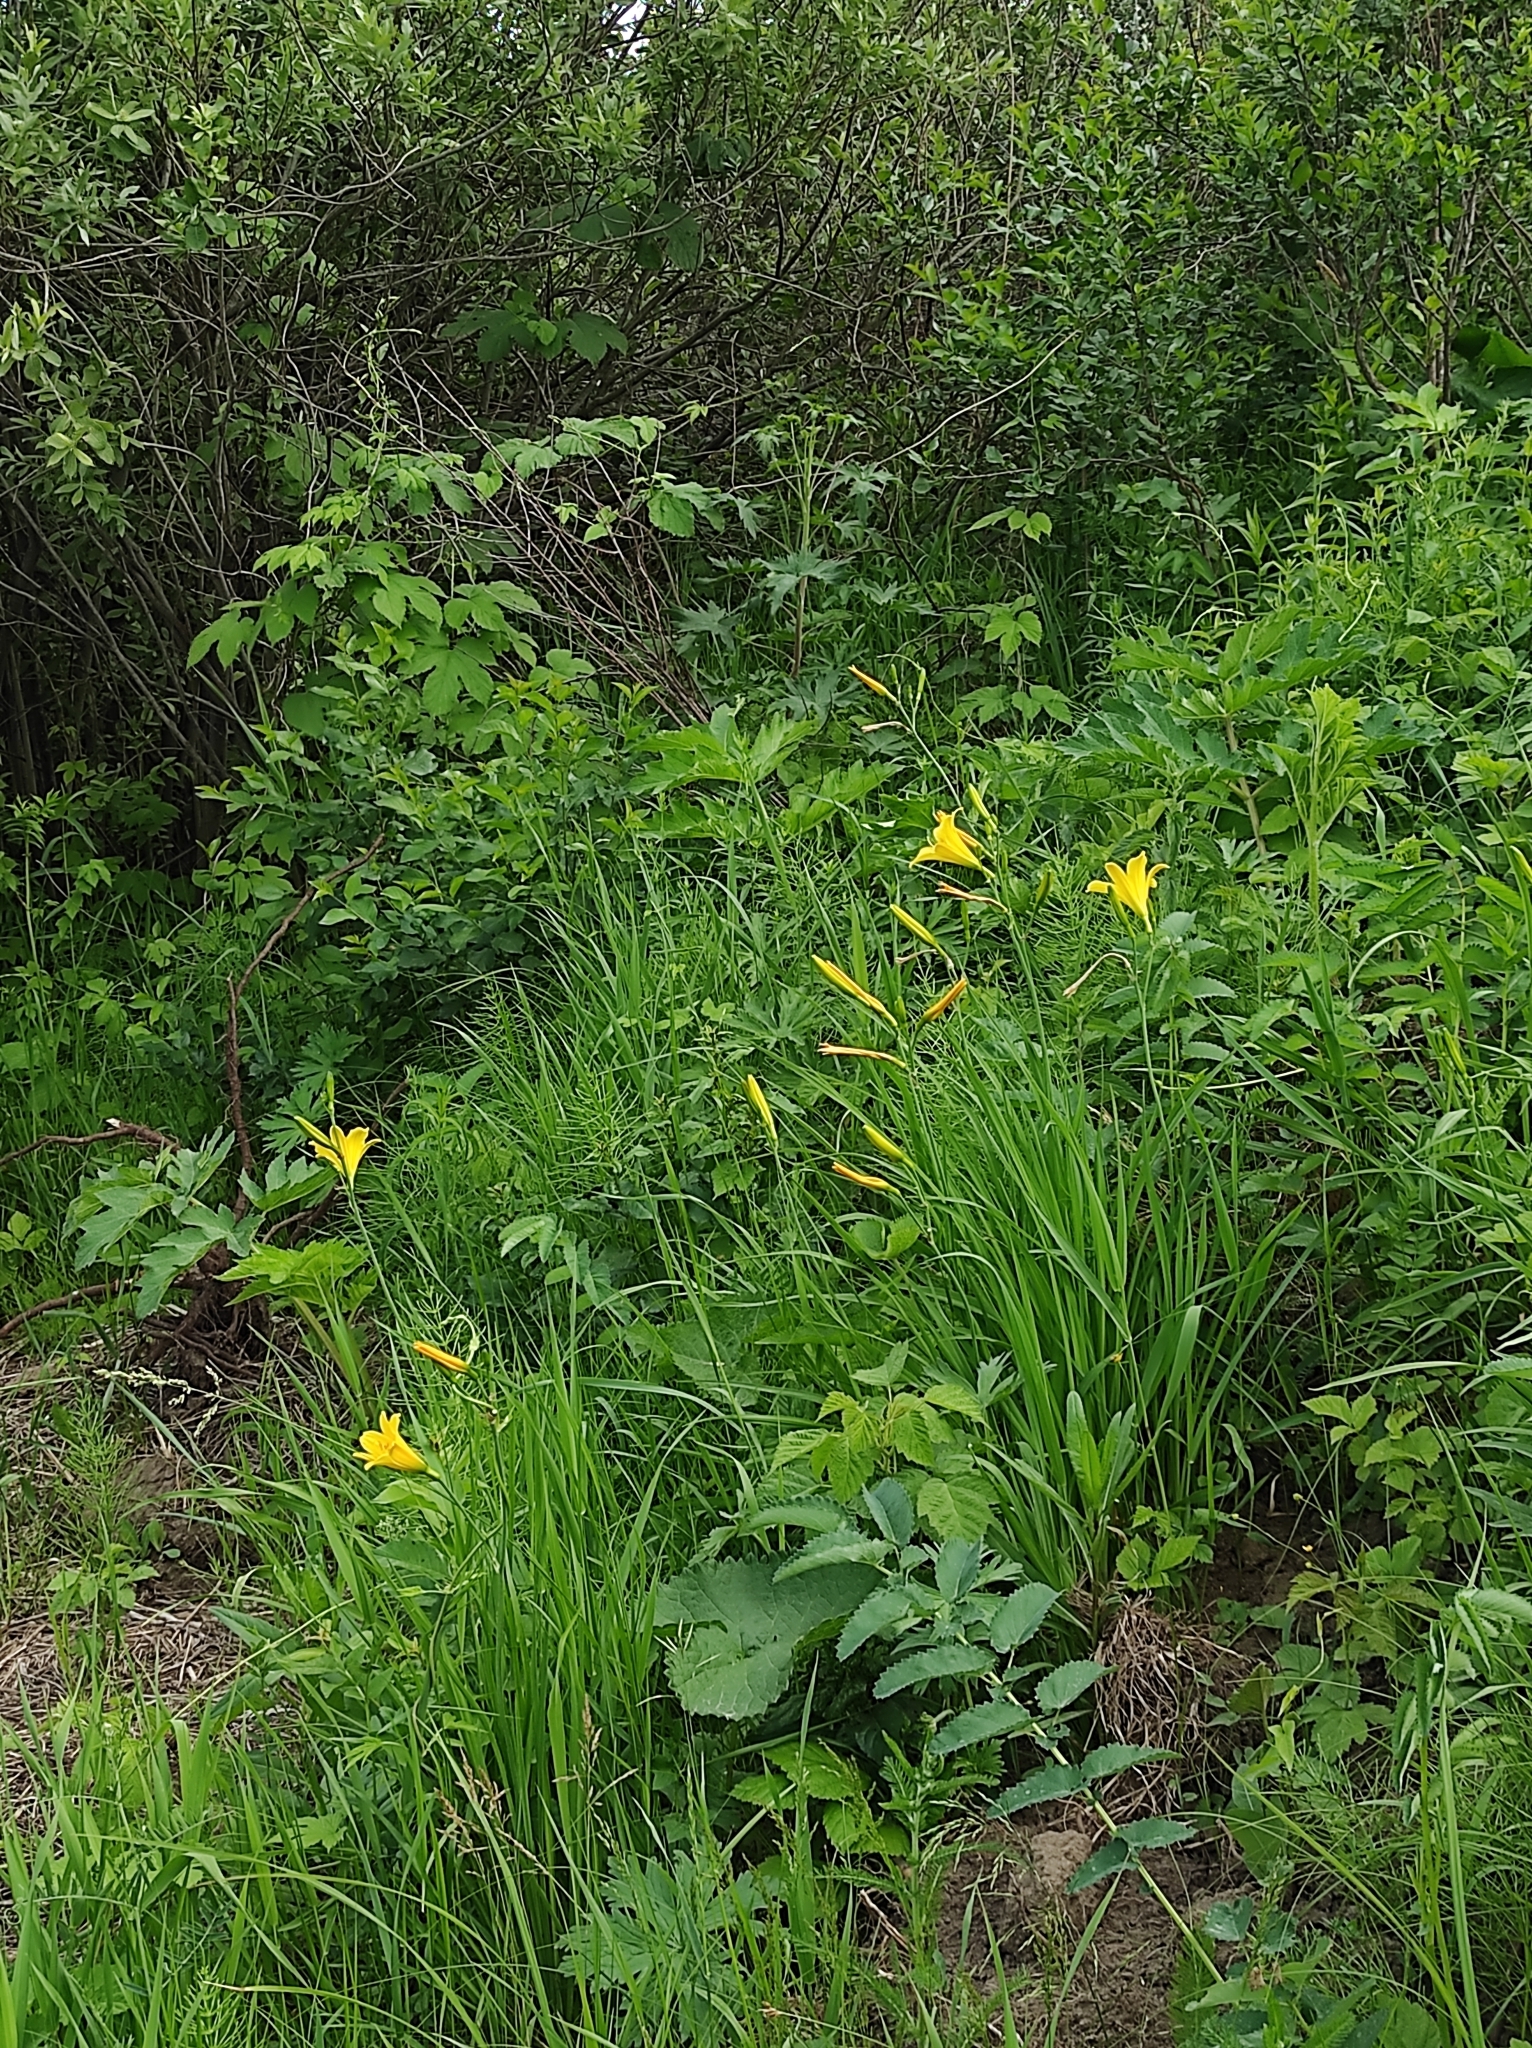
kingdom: Plantae
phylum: Tracheophyta
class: Liliopsida
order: Asparagales
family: Asphodelaceae
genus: Hemerocallis
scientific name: Hemerocallis minor
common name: Small daylily
